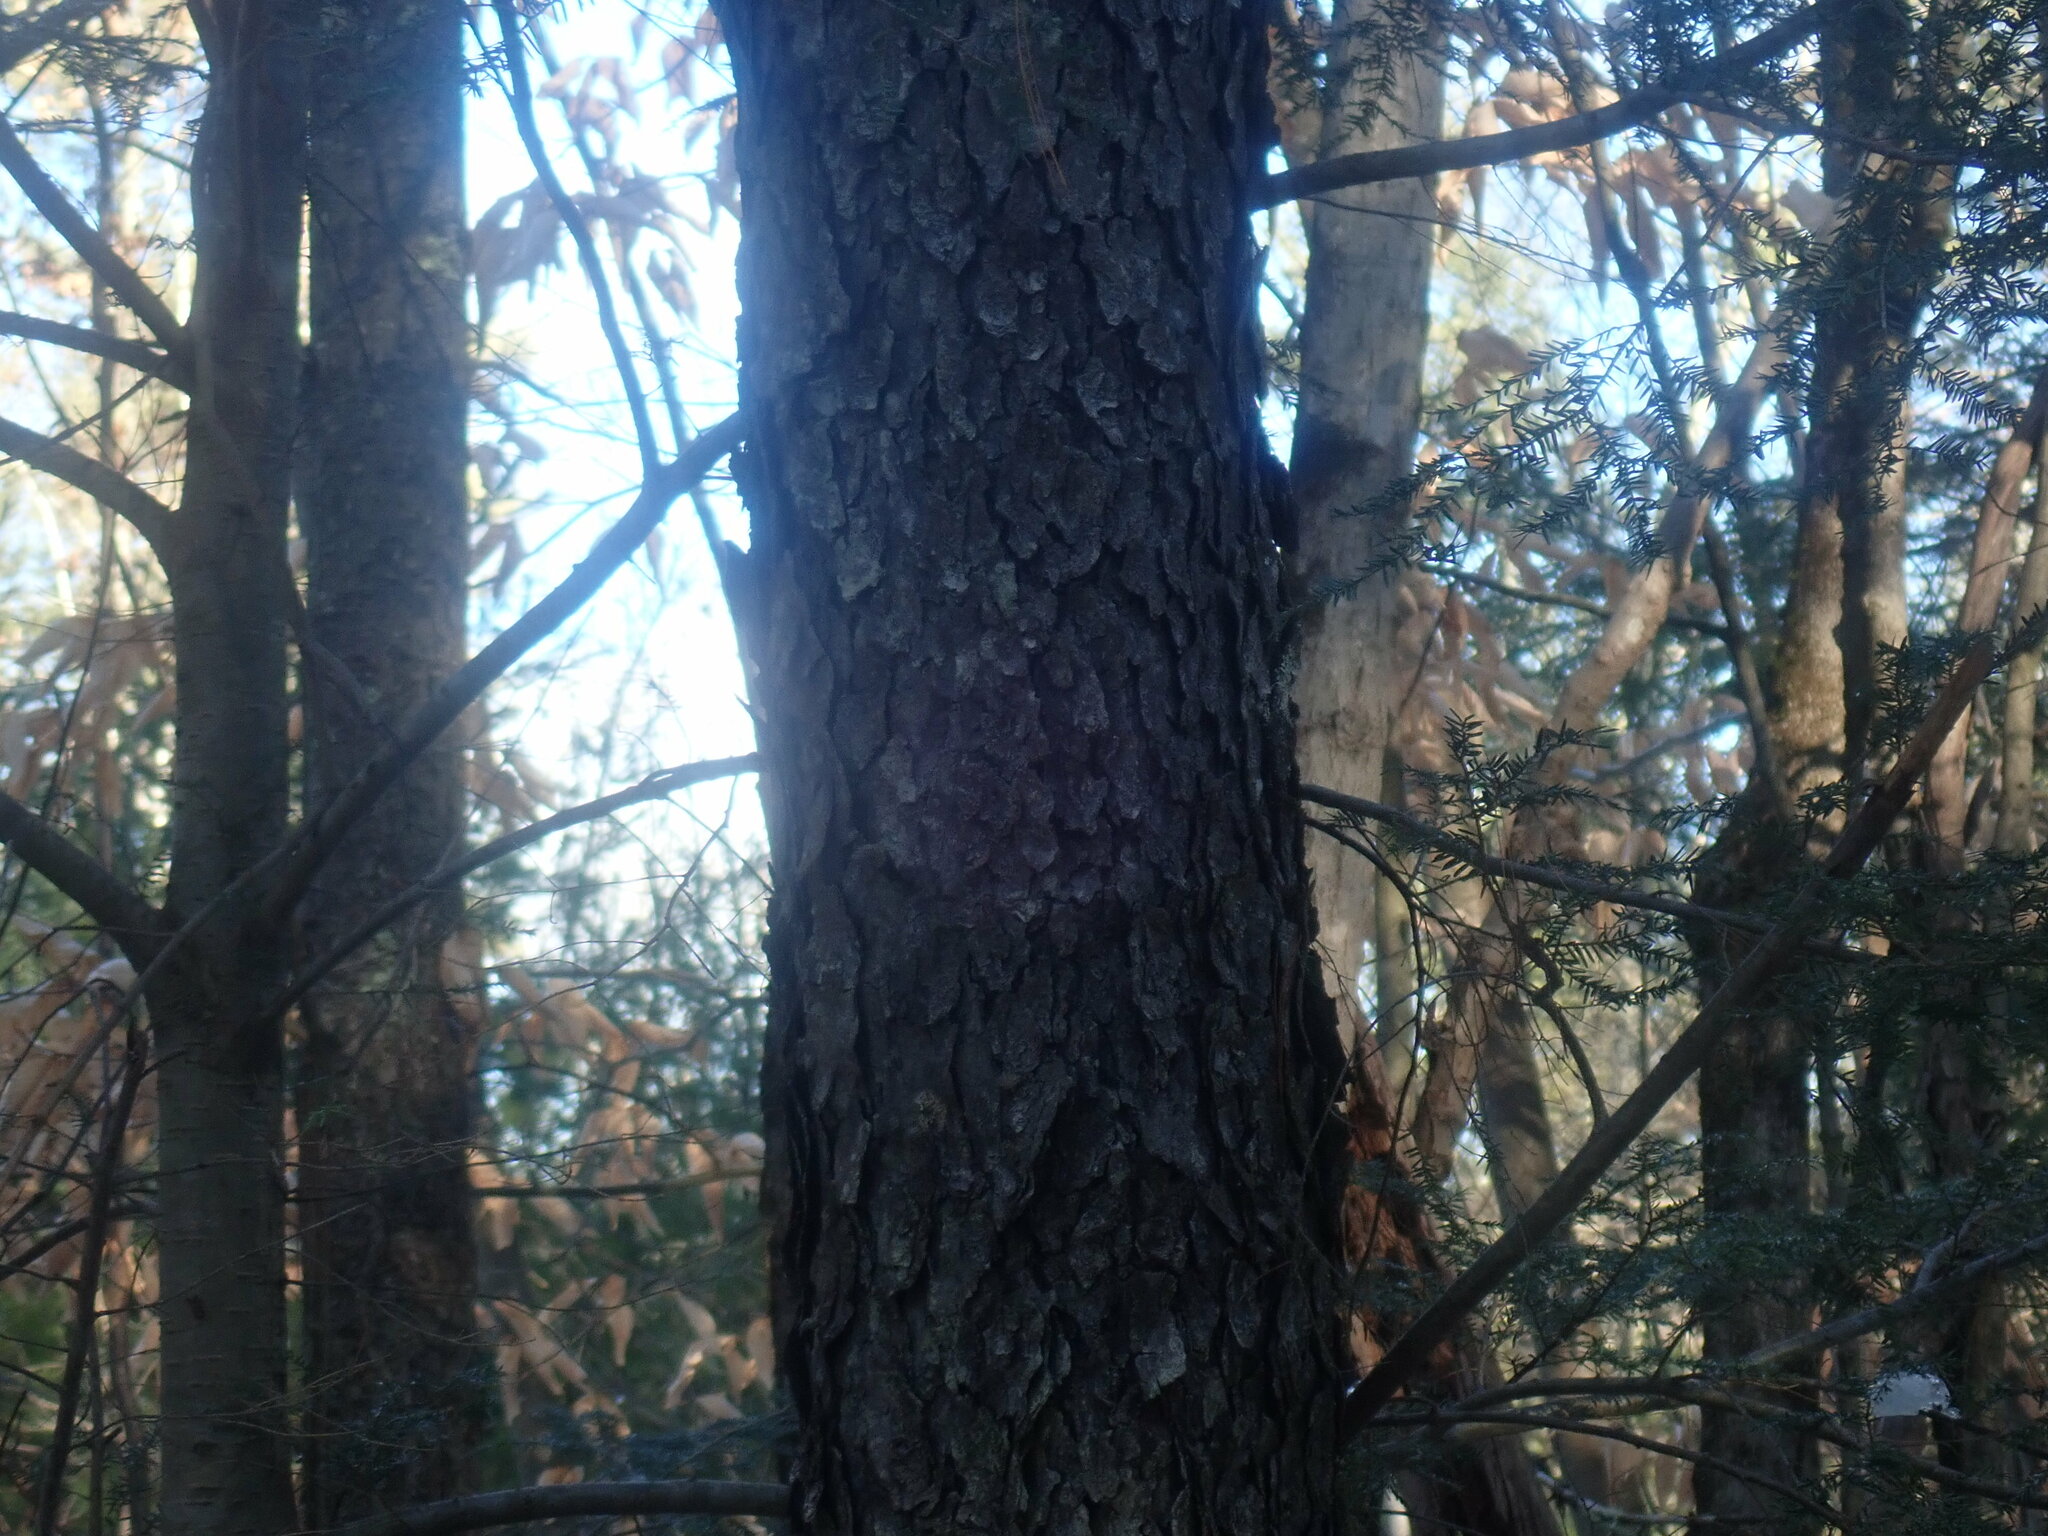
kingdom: Plantae
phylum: Tracheophyta
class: Magnoliopsida
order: Rosales
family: Rosaceae
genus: Prunus
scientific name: Prunus serotina
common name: Black cherry
